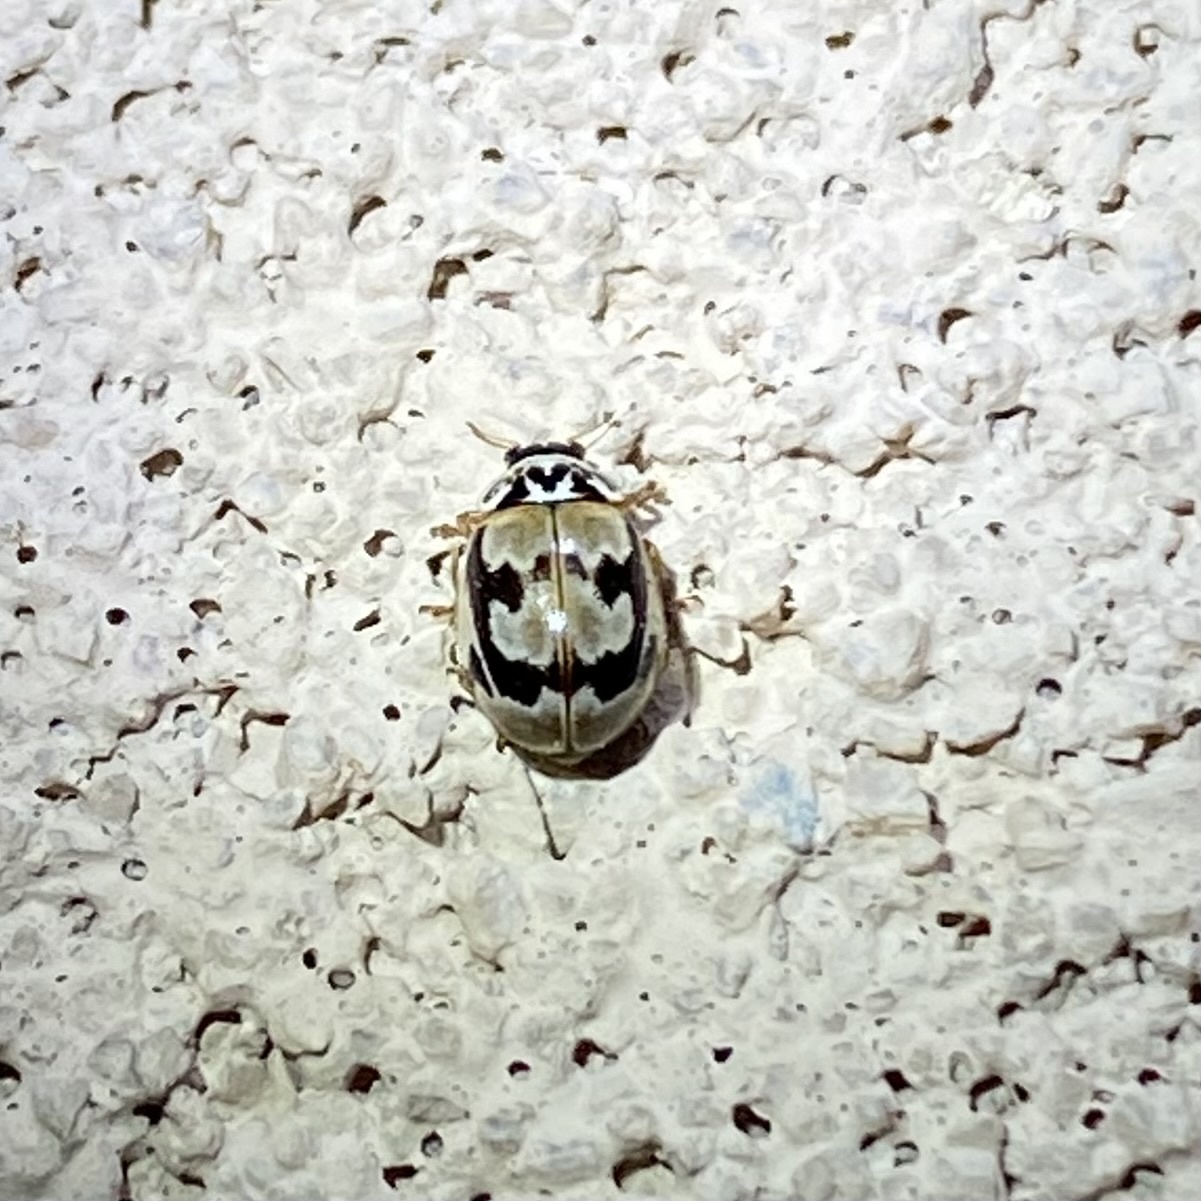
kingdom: Animalia
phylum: Arthropoda
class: Insecta
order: Coleoptera
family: Coccinellidae
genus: Mulsantina
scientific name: Mulsantina picta
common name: Painted ladybird
